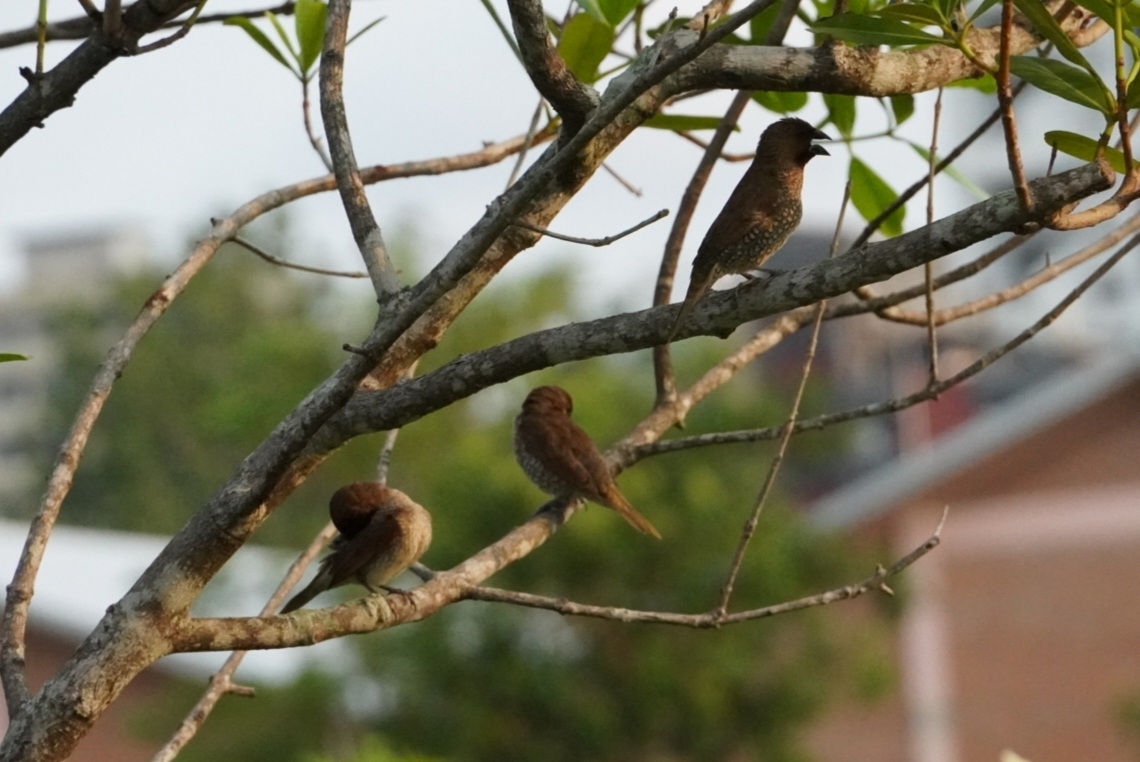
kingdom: Animalia
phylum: Chordata
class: Aves
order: Passeriformes
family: Estrildidae
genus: Lonchura
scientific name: Lonchura punctulata
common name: Scaly-breasted munia
